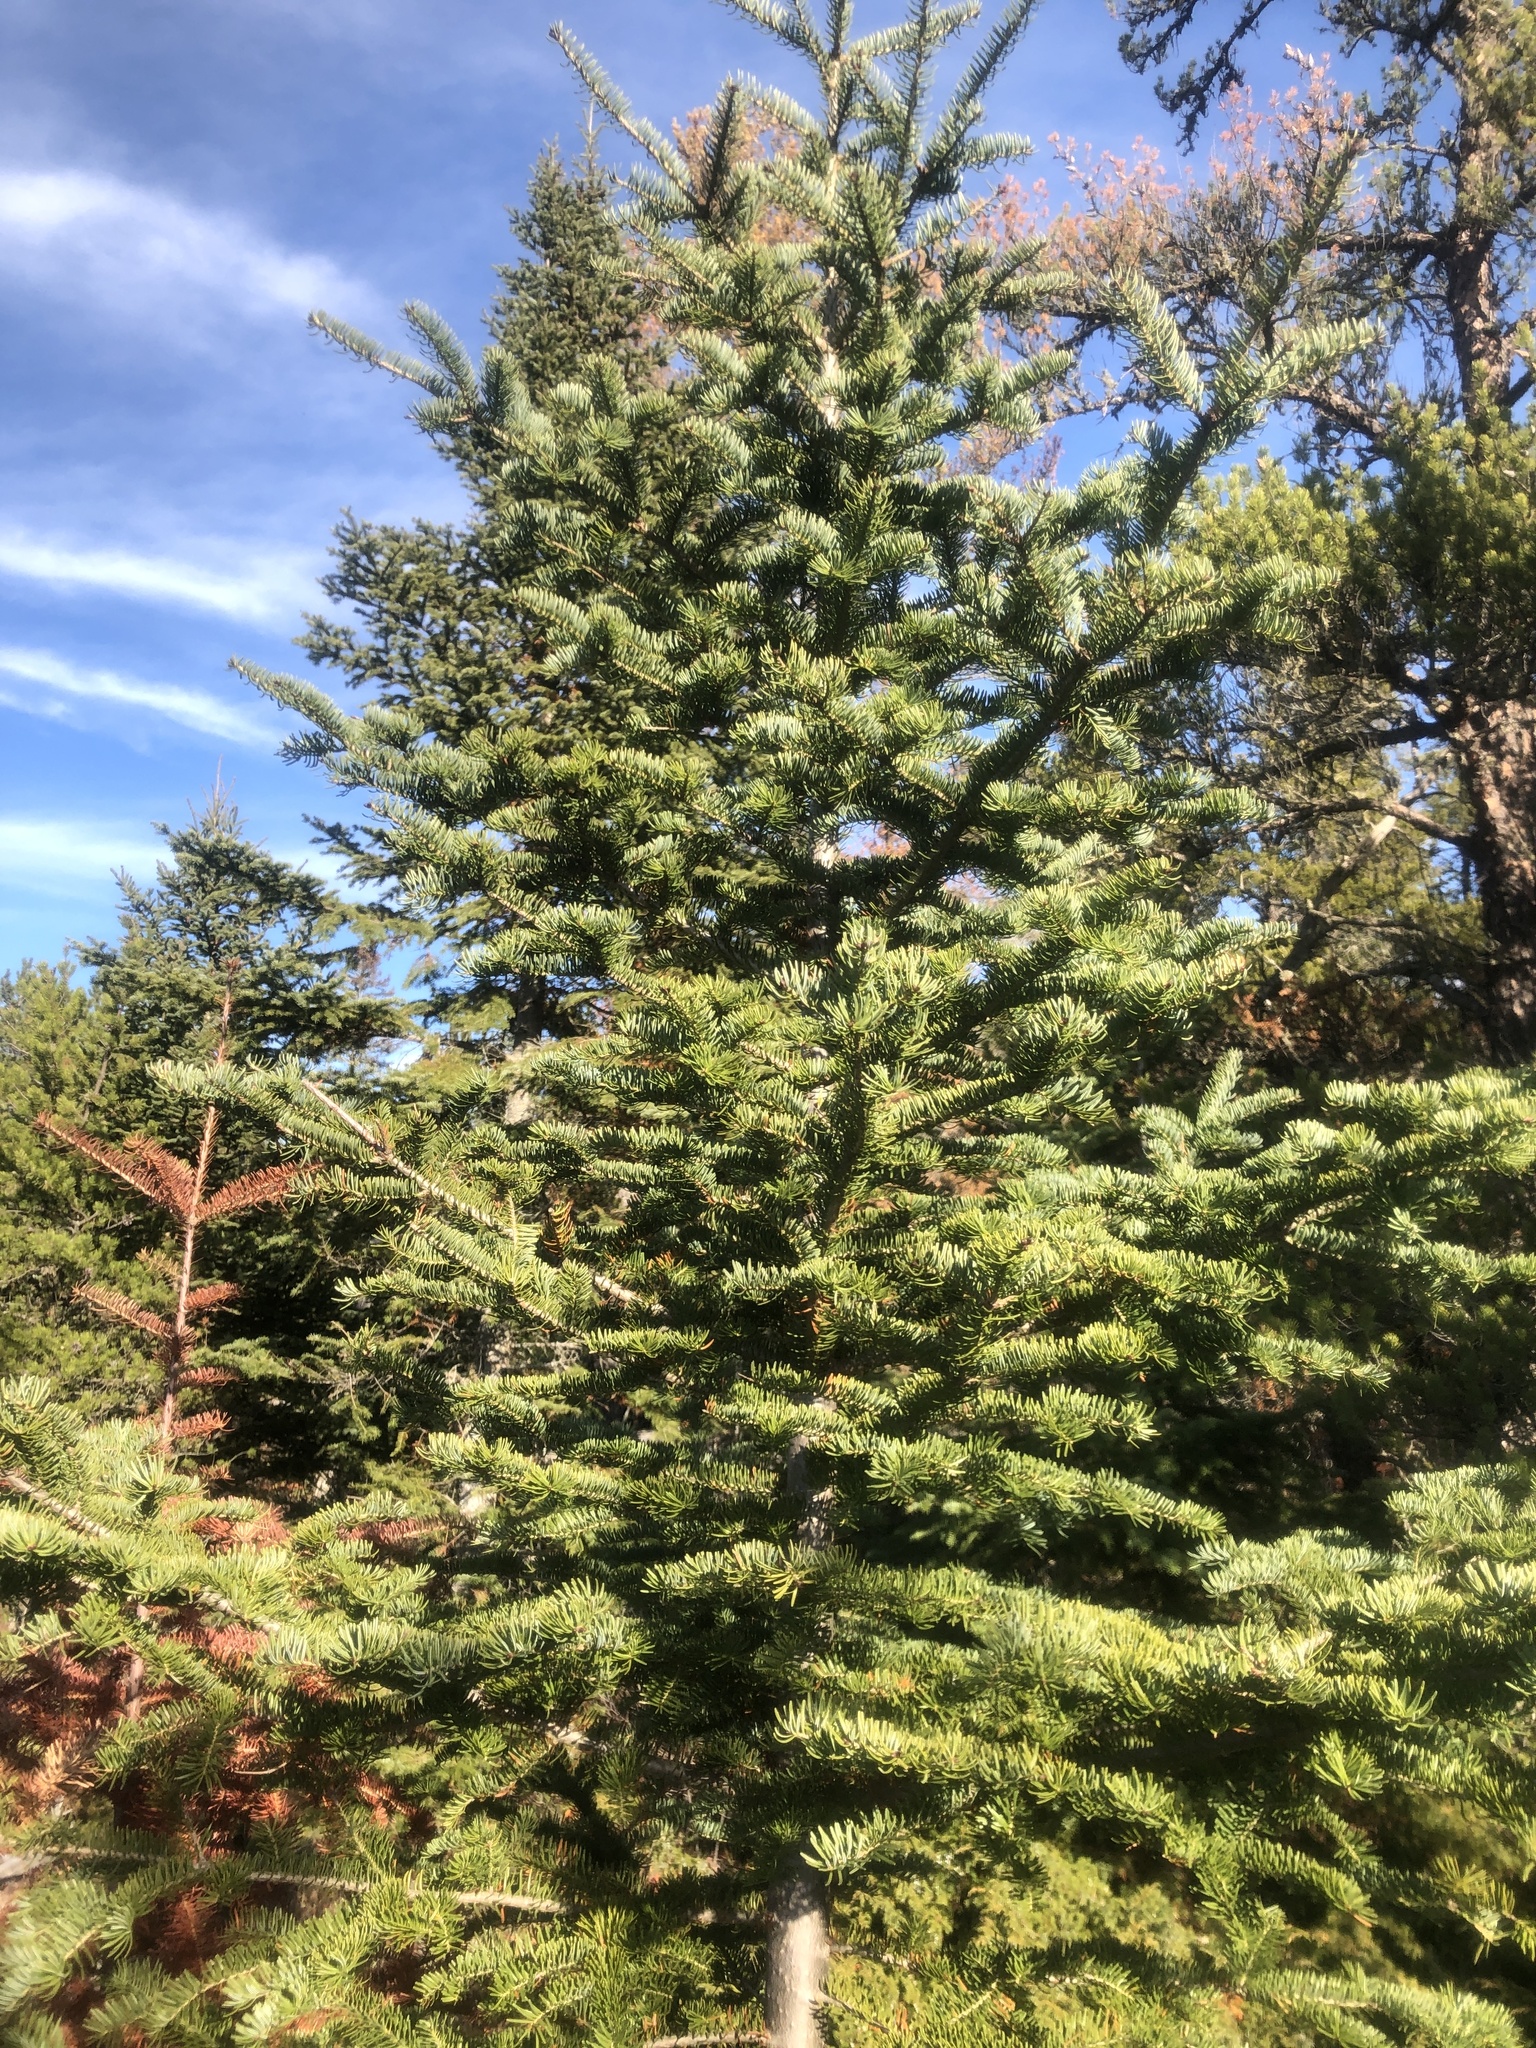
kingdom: Plantae
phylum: Tracheophyta
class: Pinopsida
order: Pinales
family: Pinaceae
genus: Abies
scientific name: Abies balsamea
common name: Balsam fir
